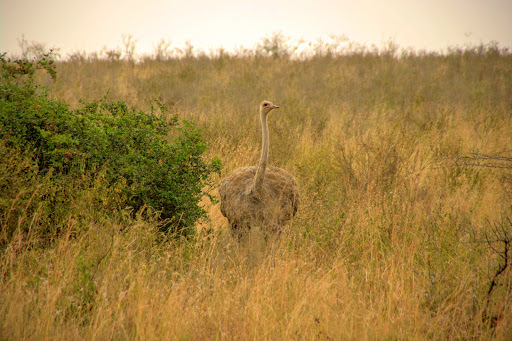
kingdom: Animalia
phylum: Chordata
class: Aves
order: Struthioniformes
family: Struthionidae
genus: Struthio
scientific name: Struthio camelus
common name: Common ostrich
